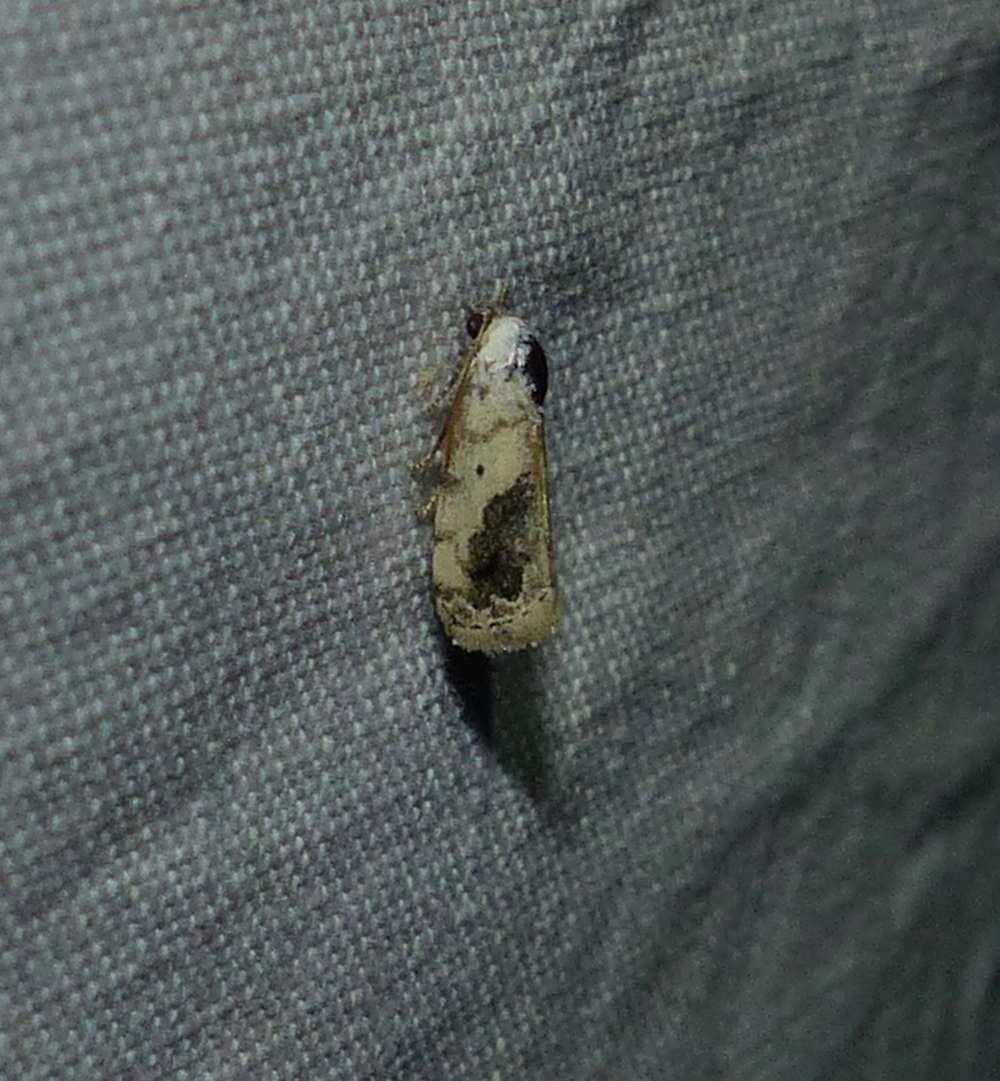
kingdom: Animalia
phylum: Arthropoda
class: Insecta
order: Lepidoptera
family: Noctuidae
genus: Acontia
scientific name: Acontia erastrioides
